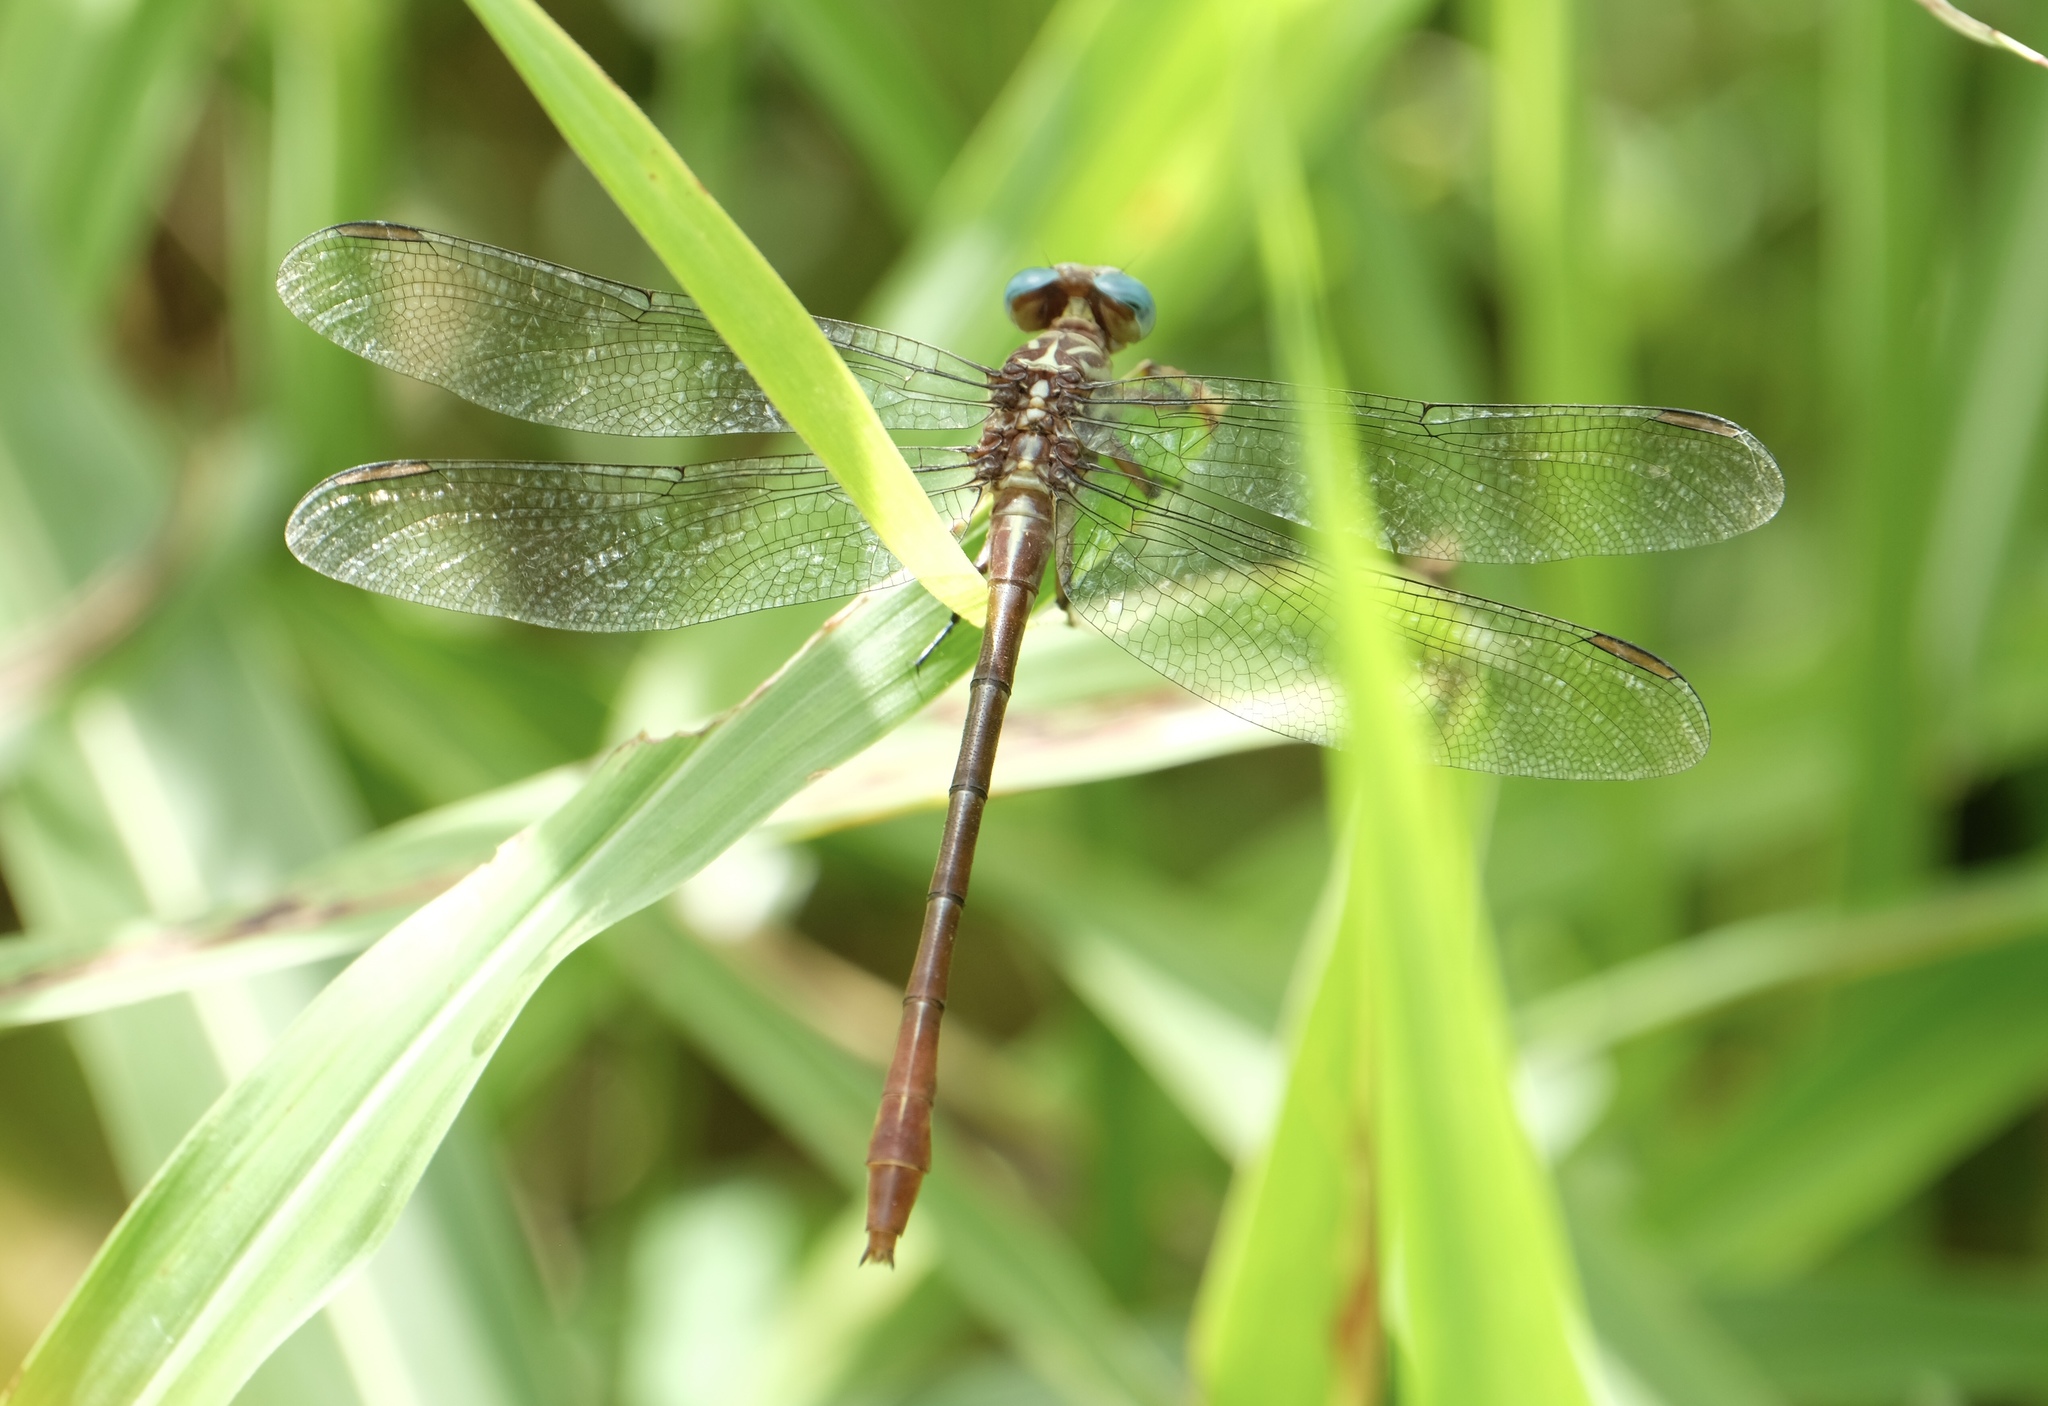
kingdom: Animalia
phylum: Arthropoda
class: Insecta
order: Odonata
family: Gomphidae
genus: Stylurus
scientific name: Stylurus plagiatus
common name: Russet-tipped clubtail
